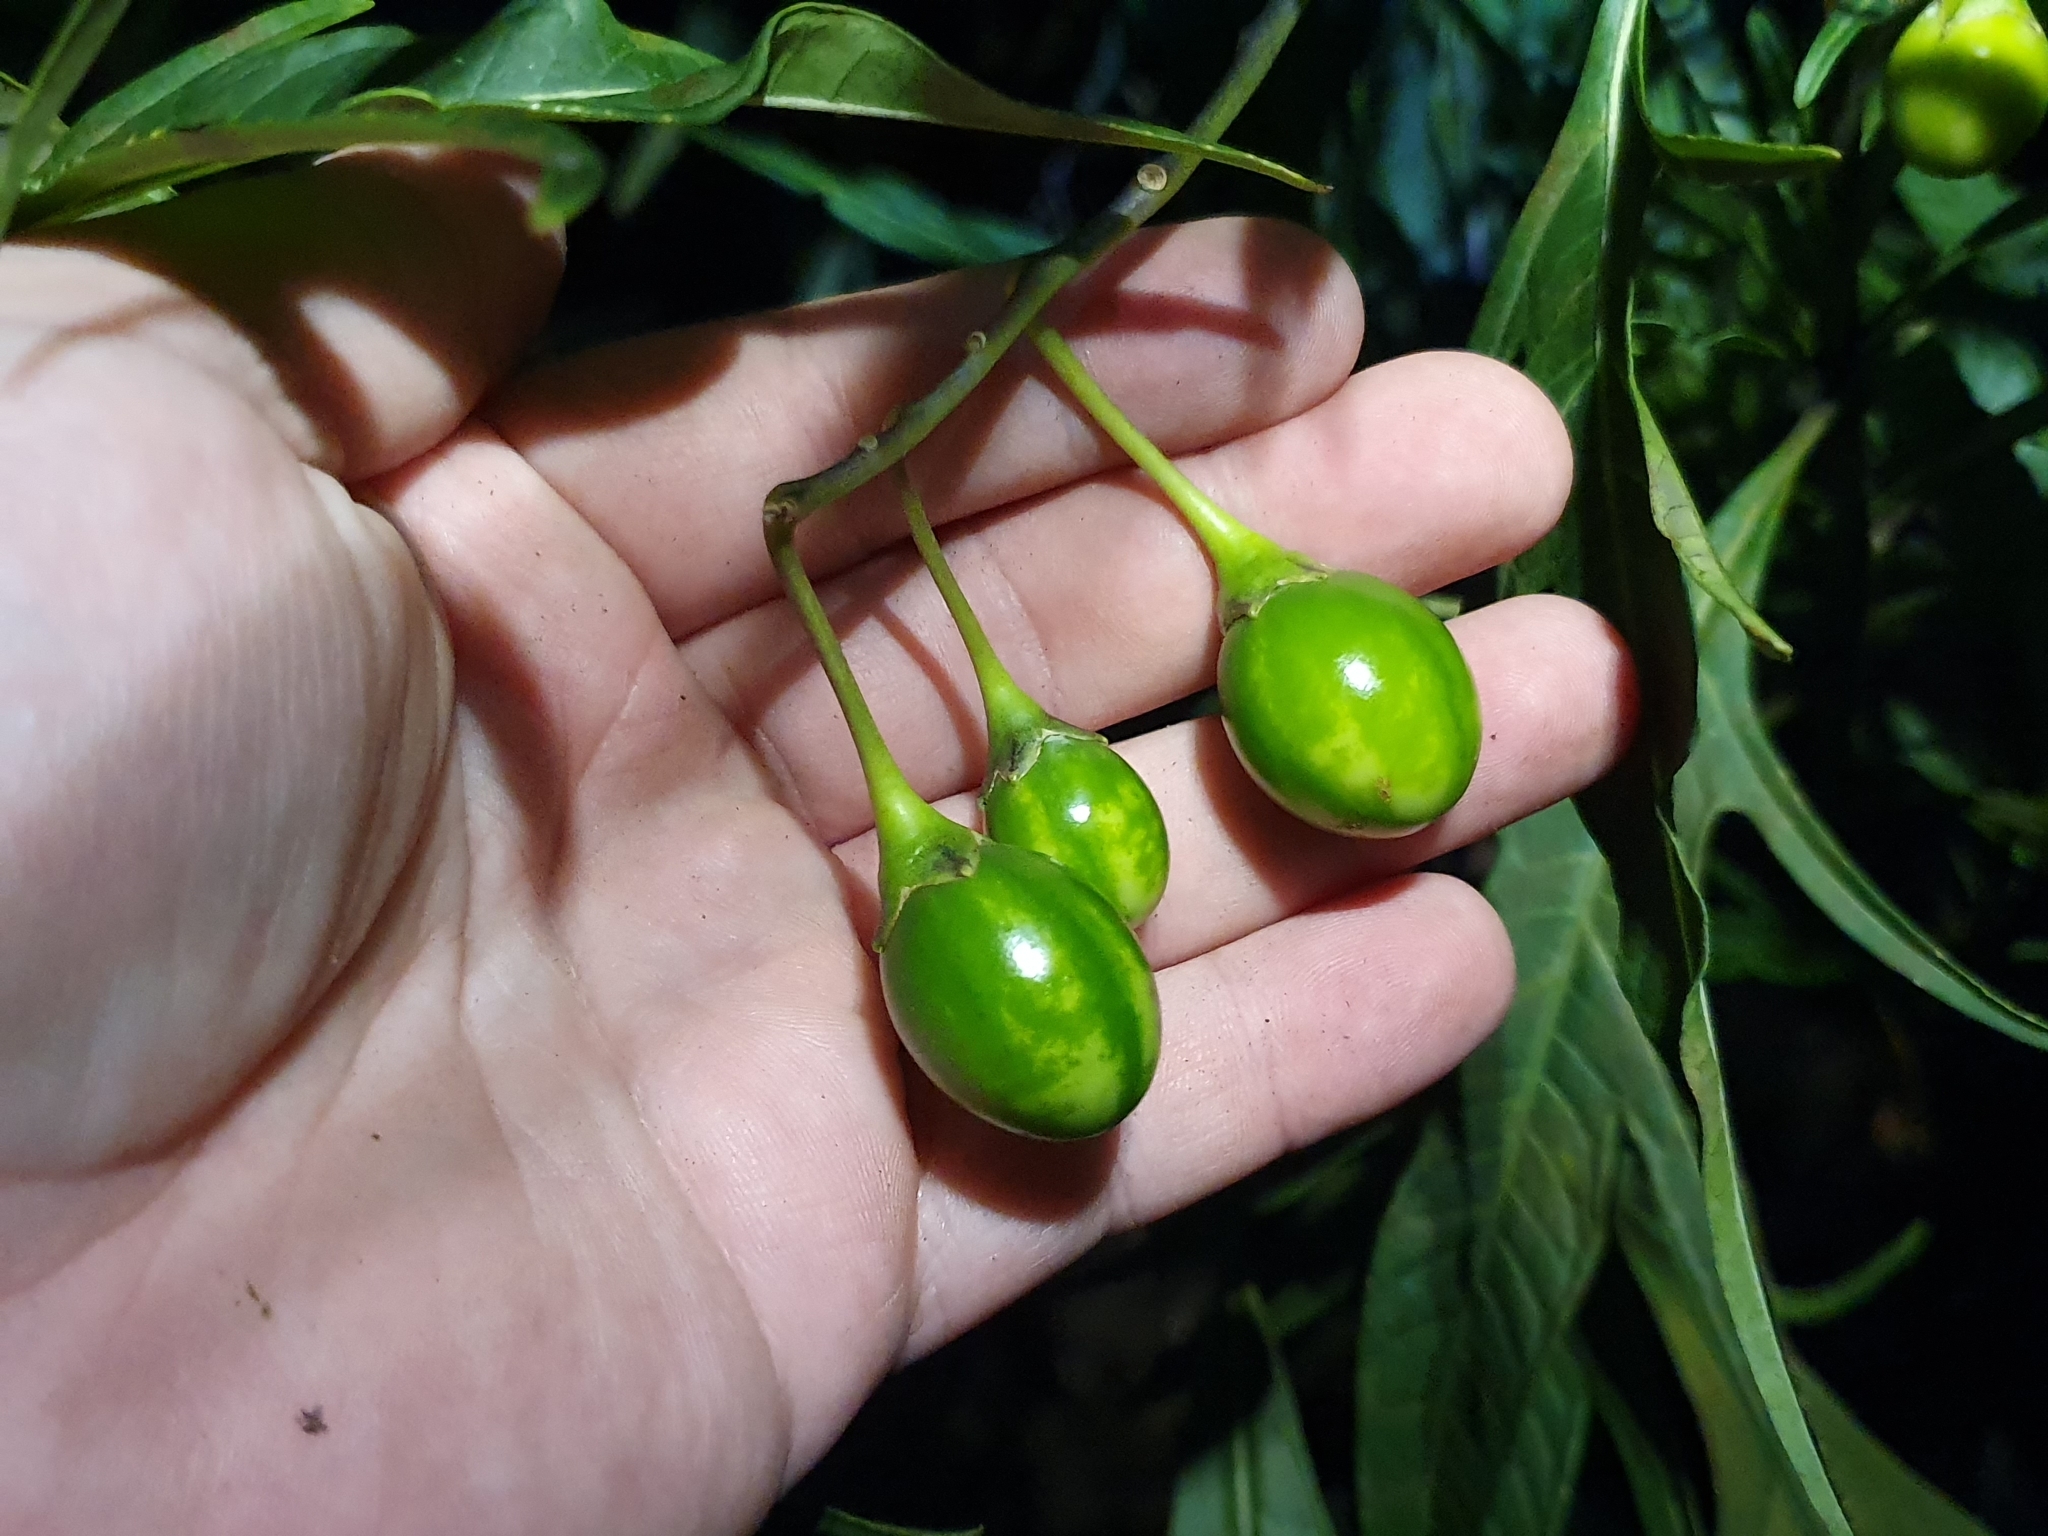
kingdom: Plantae
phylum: Tracheophyta
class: Magnoliopsida
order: Solanales
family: Solanaceae
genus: Solanum
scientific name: Solanum
